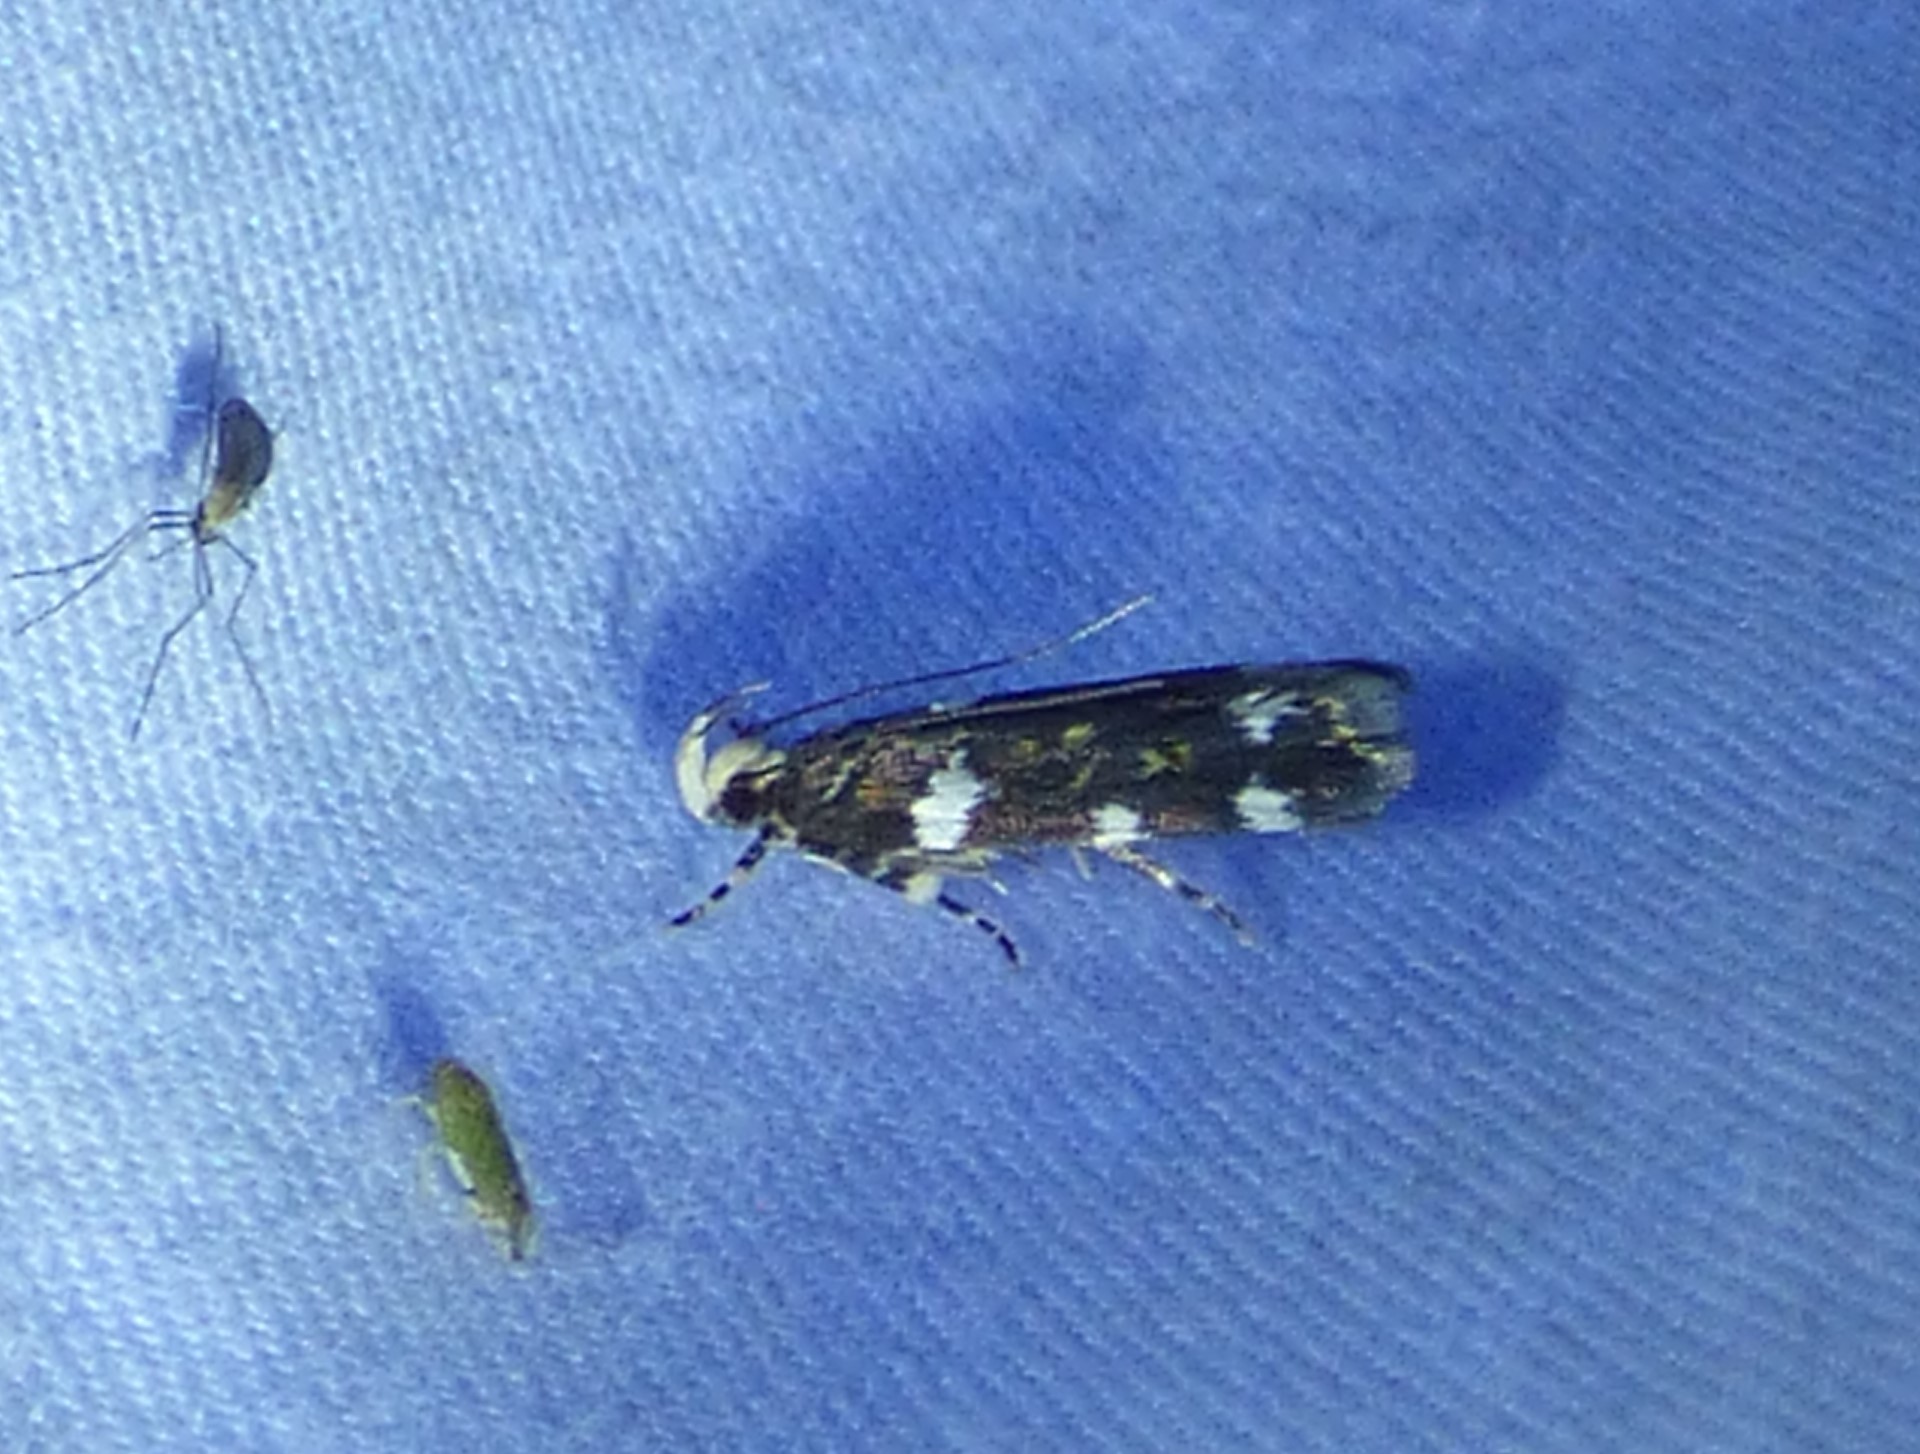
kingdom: Animalia
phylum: Arthropoda
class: Insecta
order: Lepidoptera
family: Gelechiidae
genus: Fascista
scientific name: Fascista cercerisella
